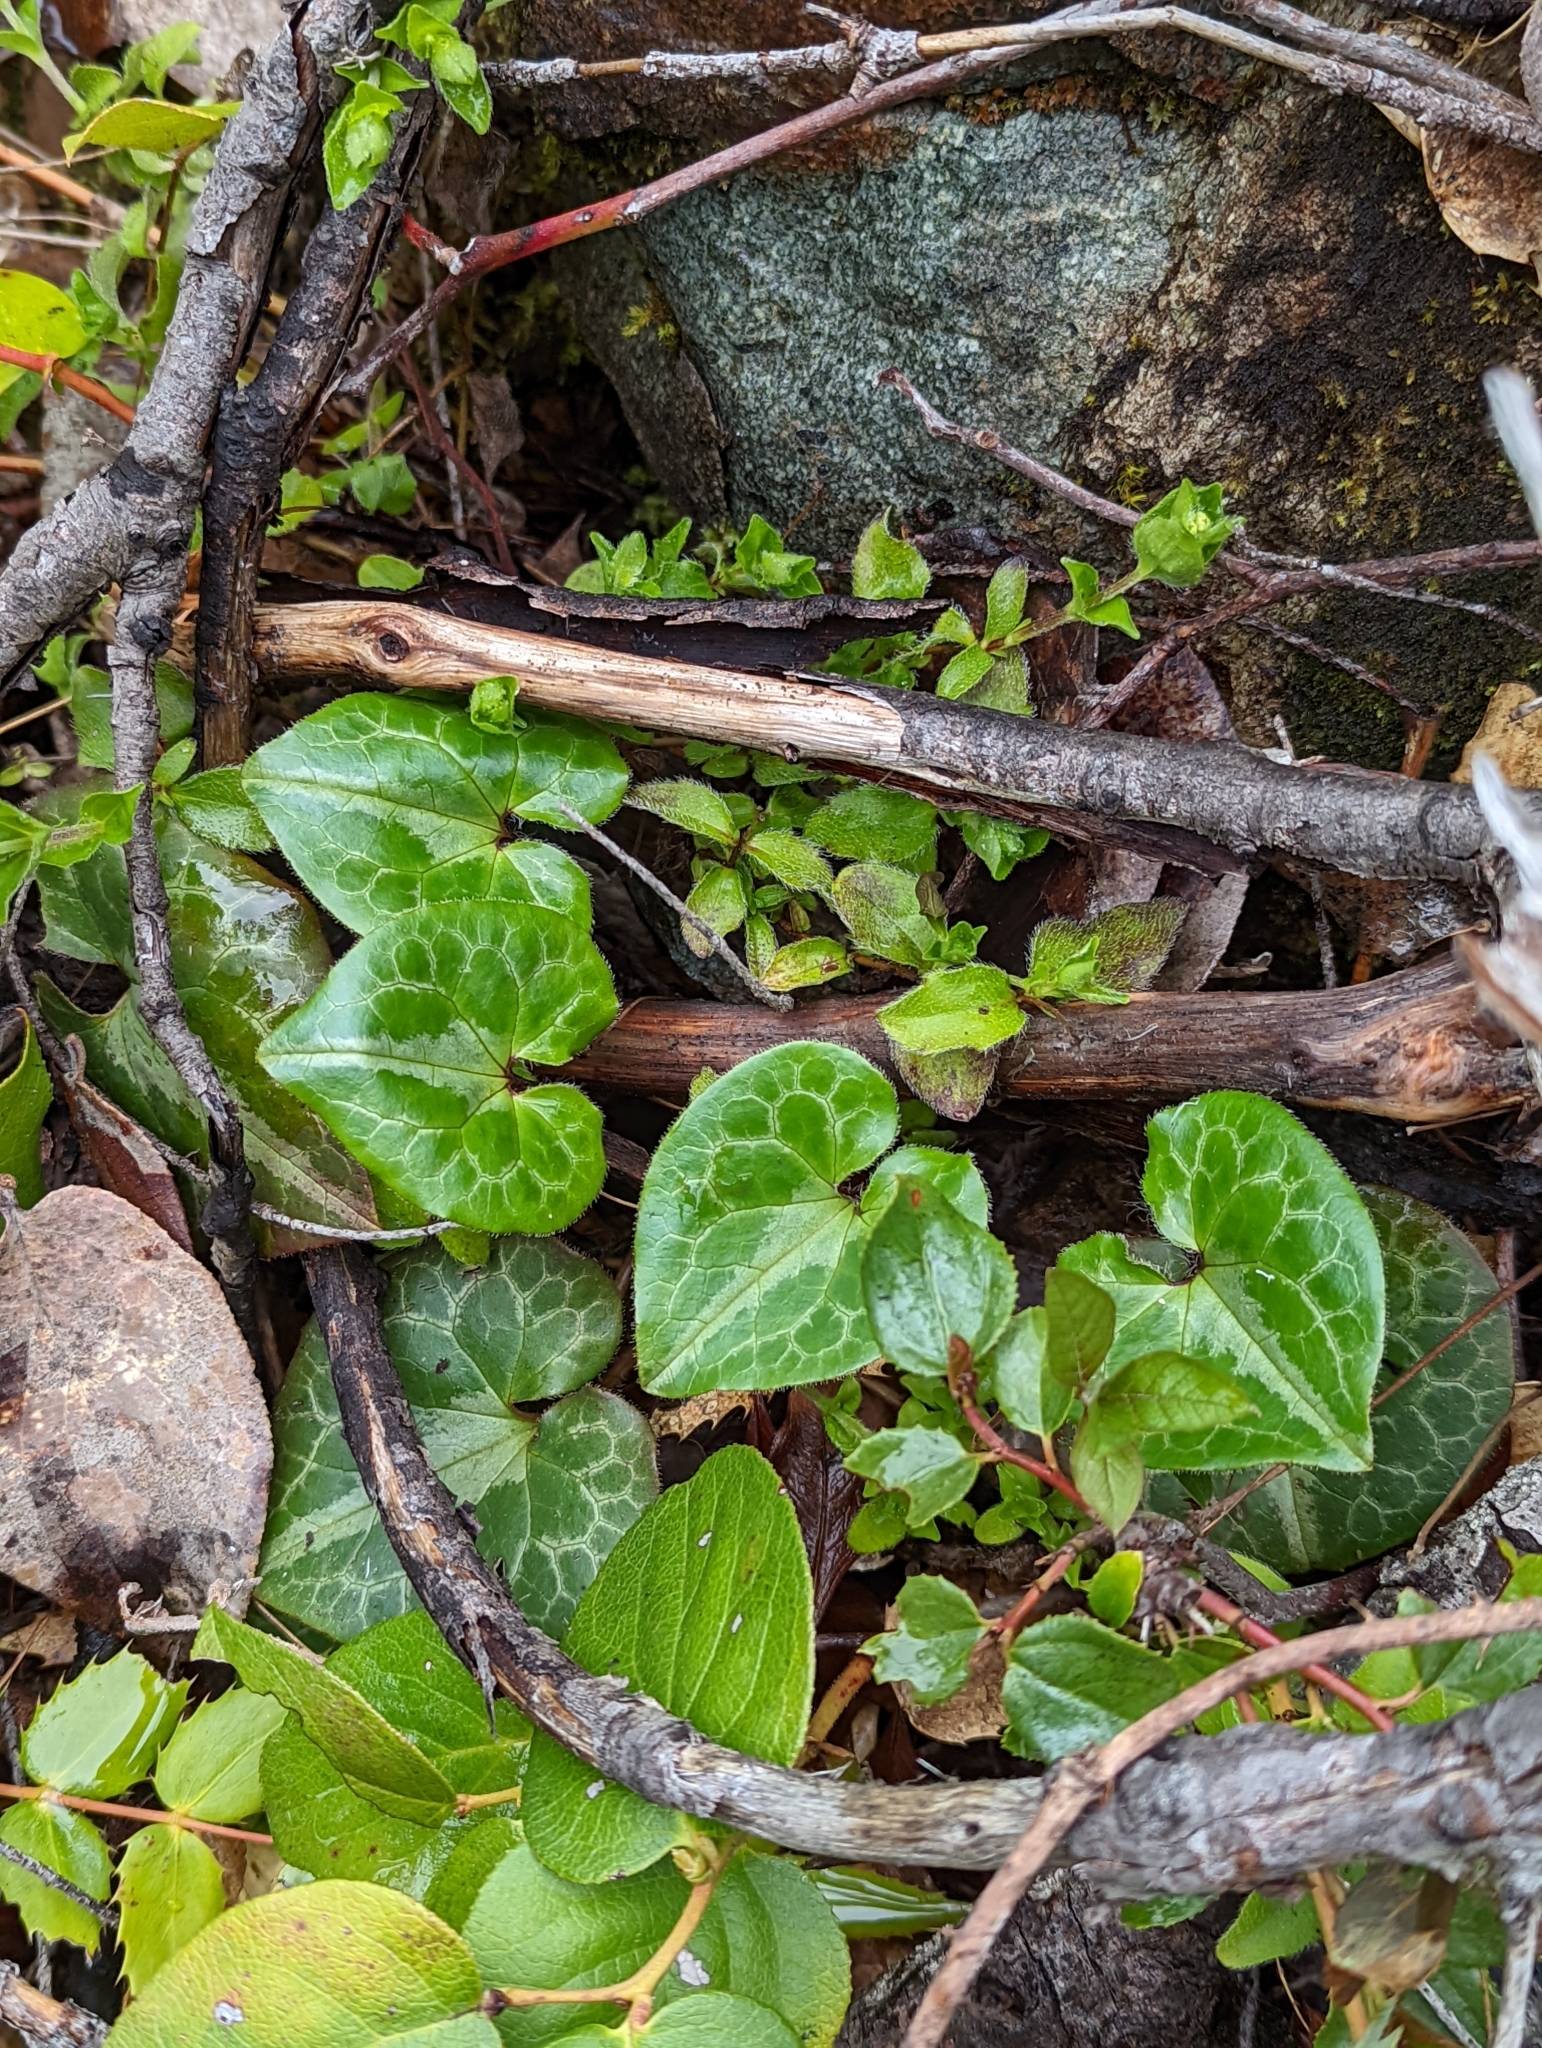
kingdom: Plantae
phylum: Tracheophyta
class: Magnoliopsida
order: Piperales
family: Aristolochiaceae
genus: Asarum
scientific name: Asarum marmoratum
